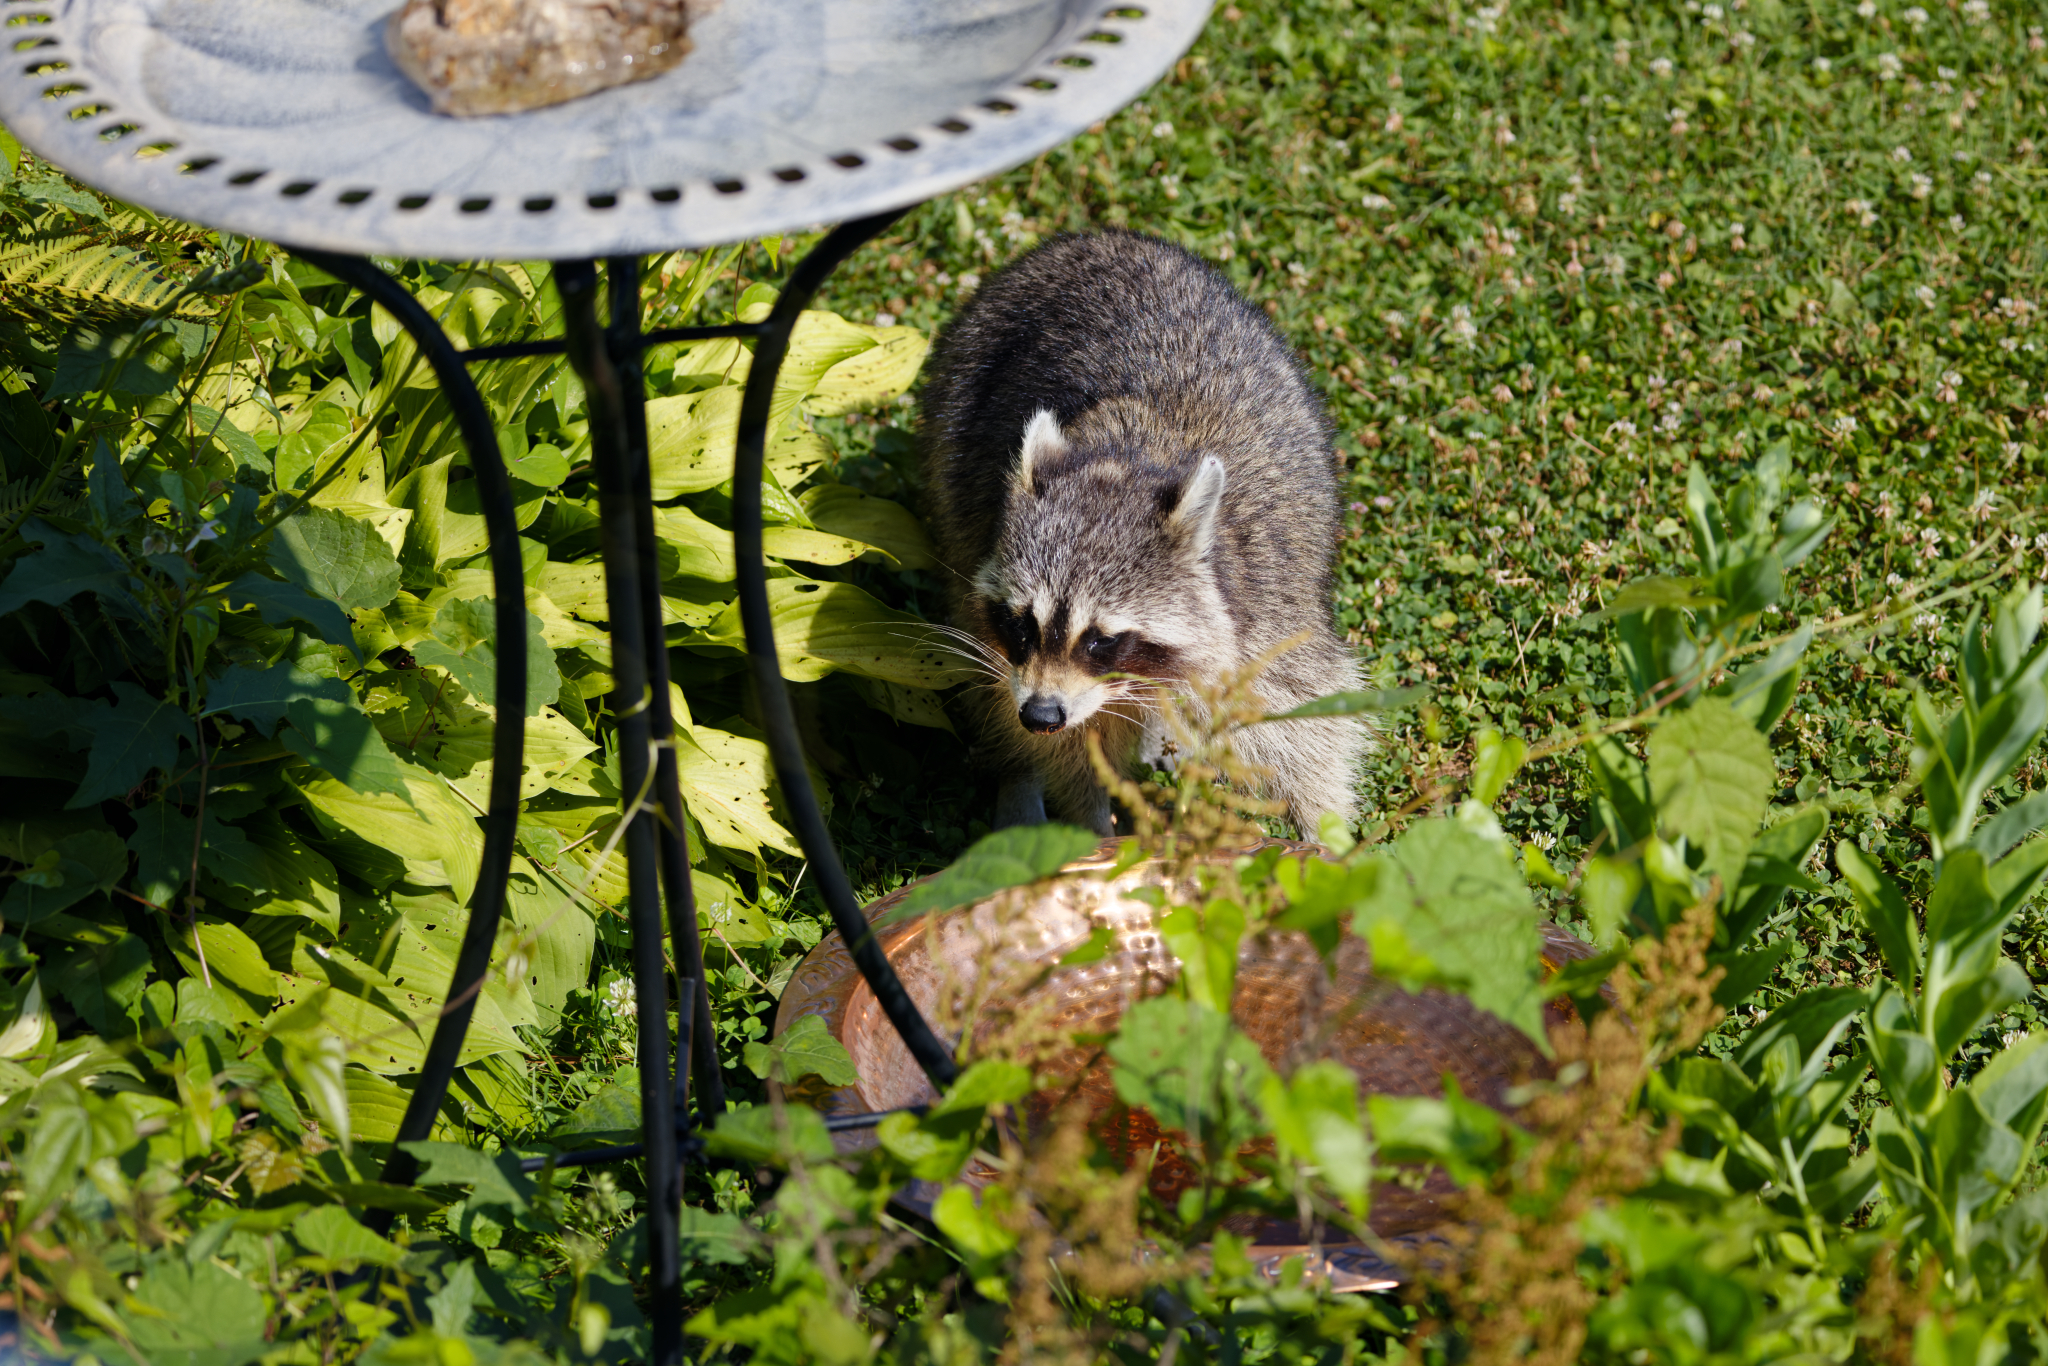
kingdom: Animalia
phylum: Chordata
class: Mammalia
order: Carnivora
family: Procyonidae
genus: Procyon
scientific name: Procyon lotor
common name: Raccoon
